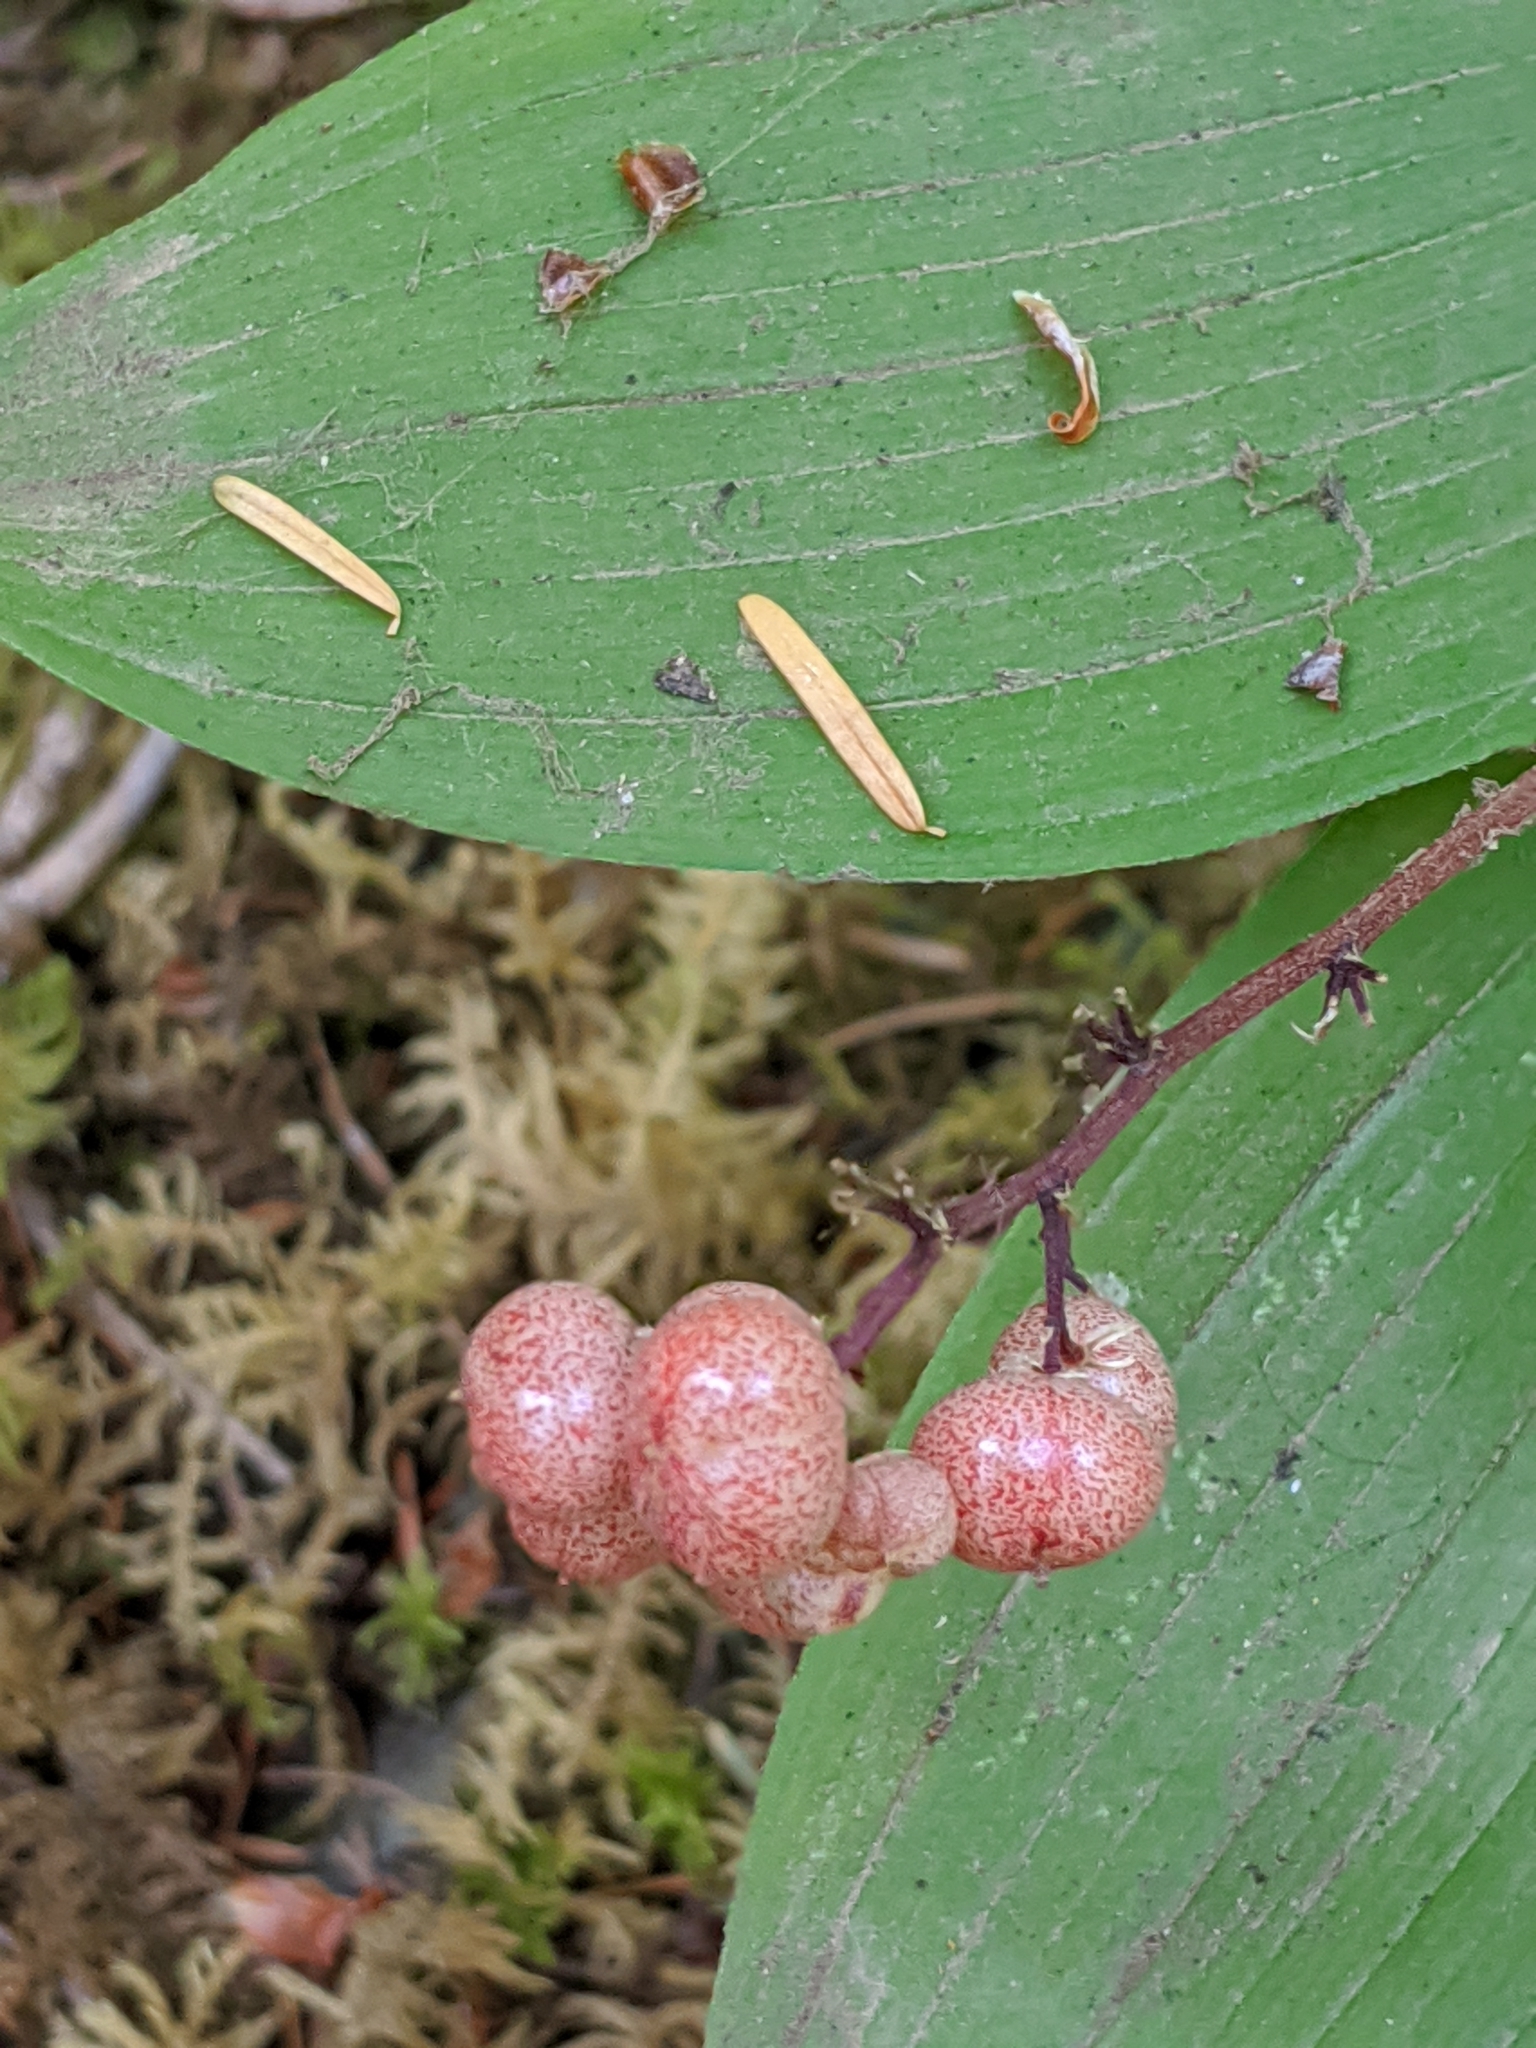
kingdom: Plantae
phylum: Tracheophyta
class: Liliopsida
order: Asparagales
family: Asparagaceae
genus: Maianthemum
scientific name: Maianthemum racemosum
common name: False spikenard
